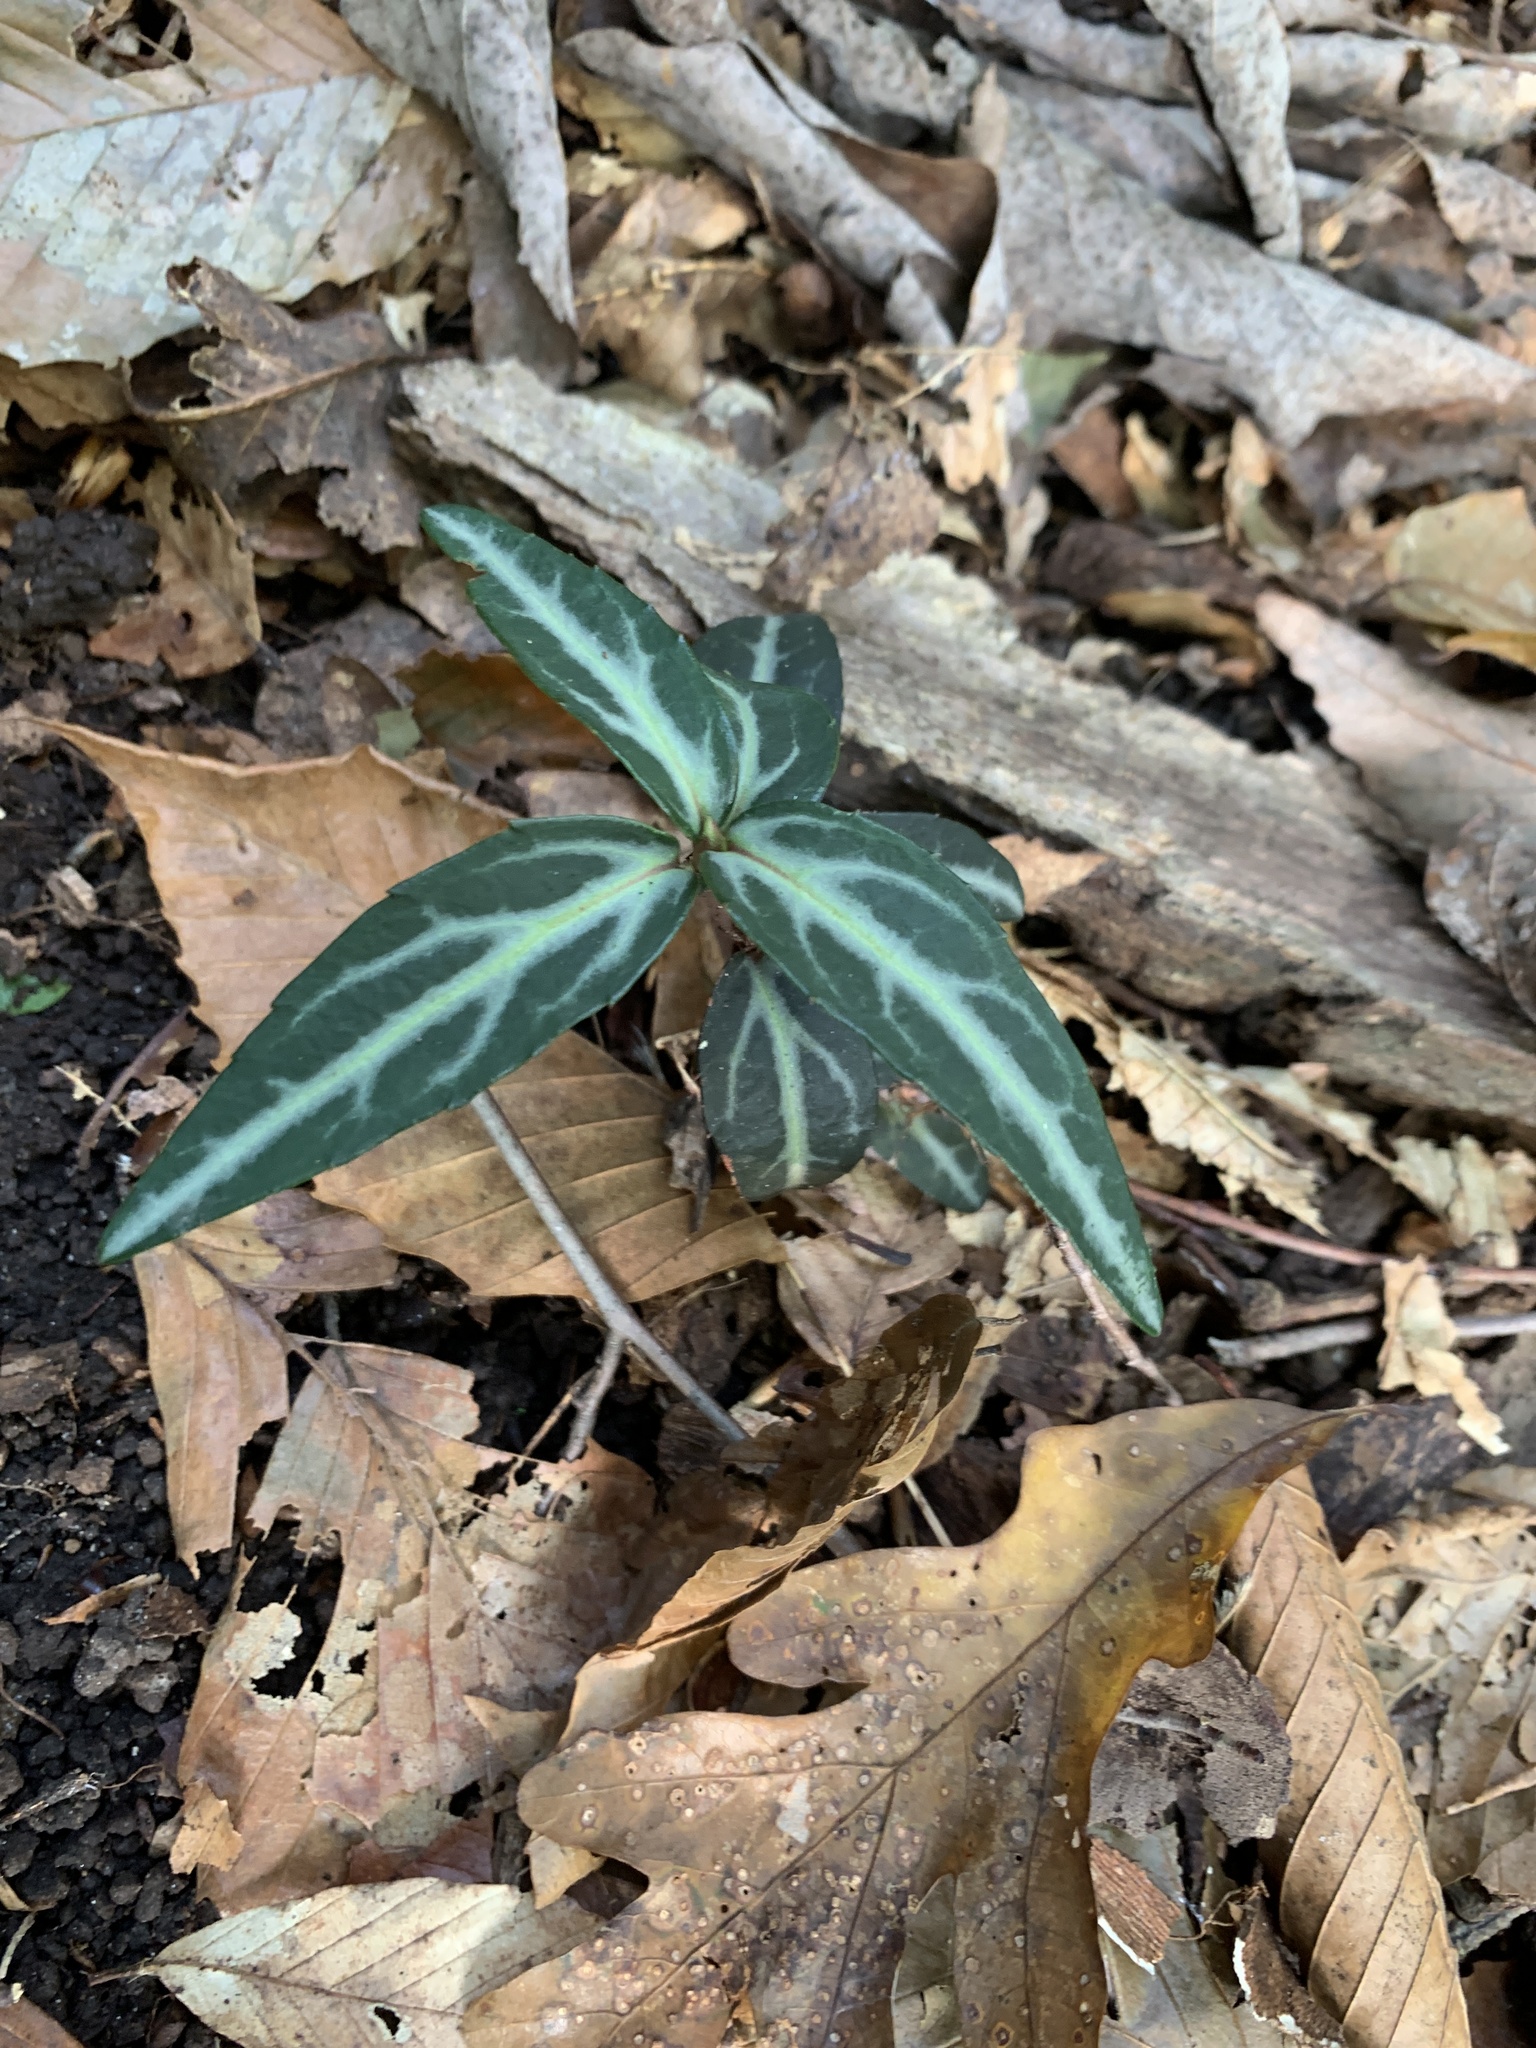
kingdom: Plantae
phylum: Tracheophyta
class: Magnoliopsida
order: Ericales
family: Ericaceae
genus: Chimaphila
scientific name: Chimaphila maculata
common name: Spotted pipsissewa
